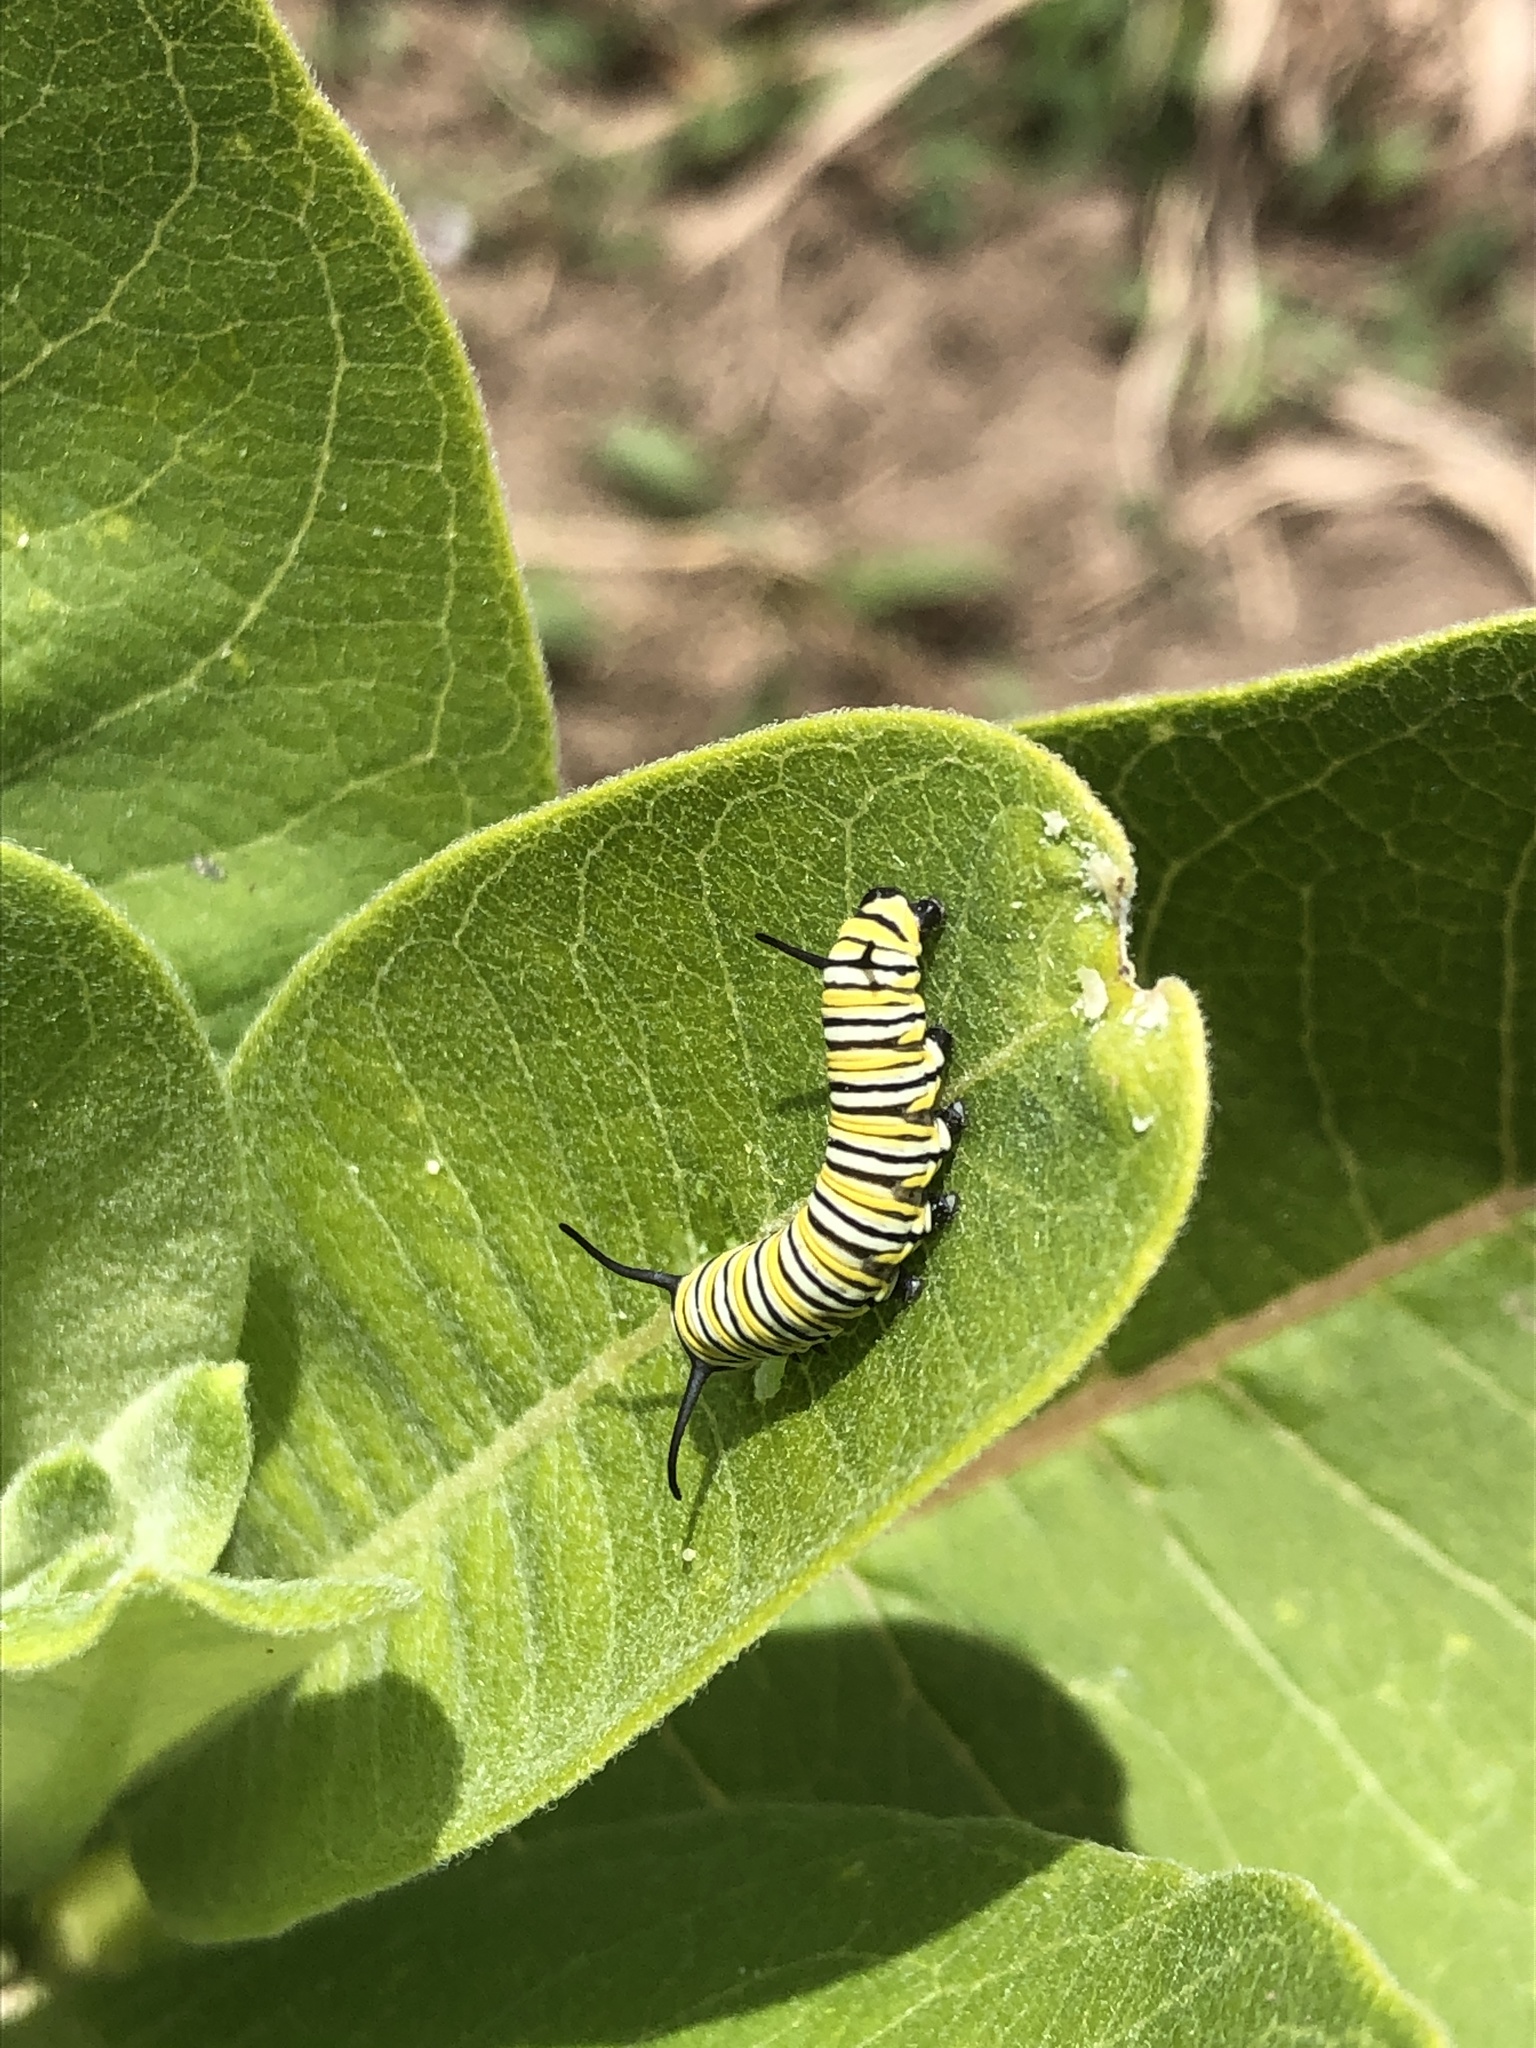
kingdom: Animalia
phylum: Arthropoda
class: Insecta
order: Lepidoptera
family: Nymphalidae
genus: Danaus
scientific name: Danaus plexippus
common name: Monarch
